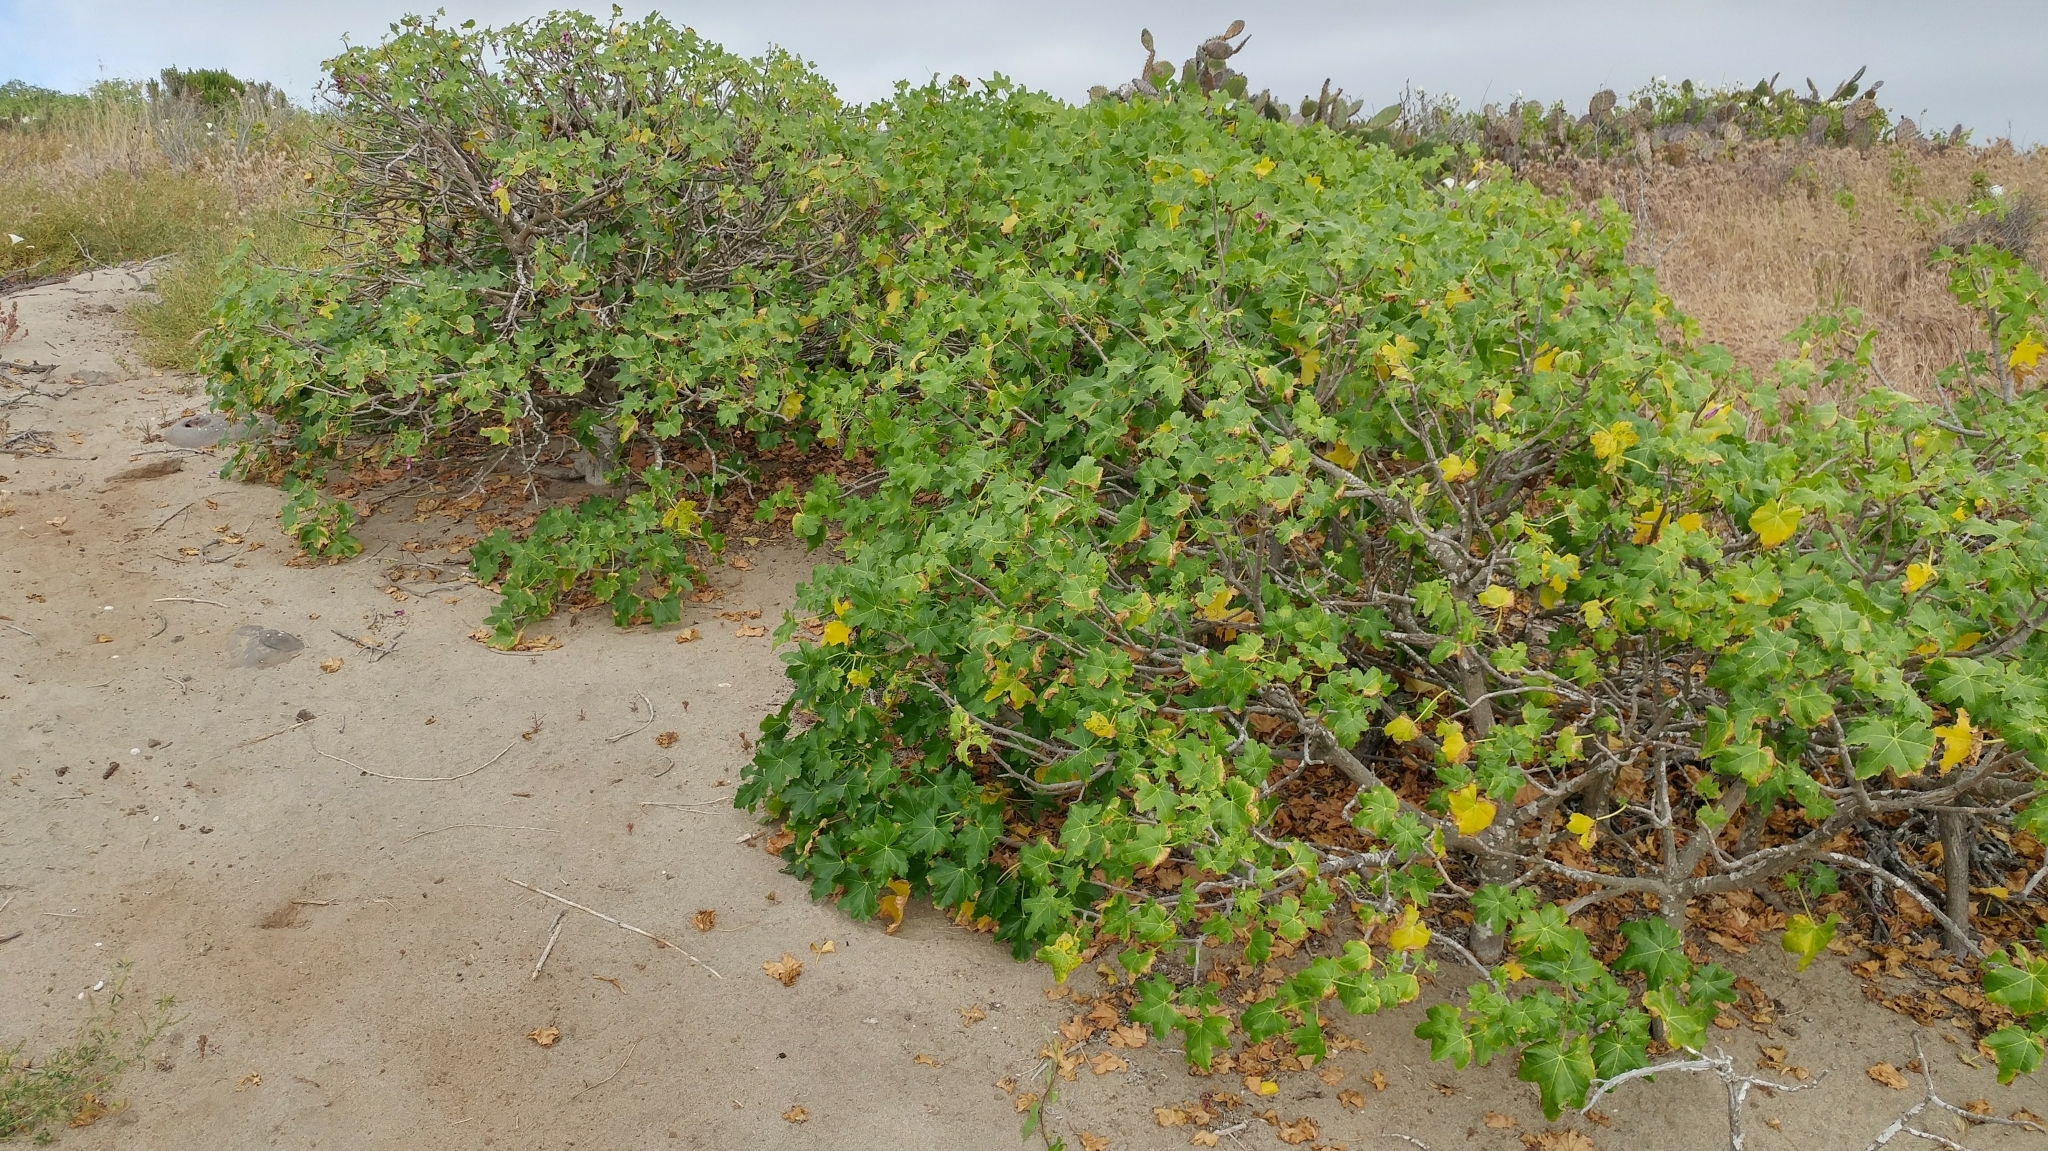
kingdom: Plantae
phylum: Tracheophyta
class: Magnoliopsida
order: Malvales
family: Malvaceae
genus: Malva
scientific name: Malva assurgentiflora
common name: Island mallow
